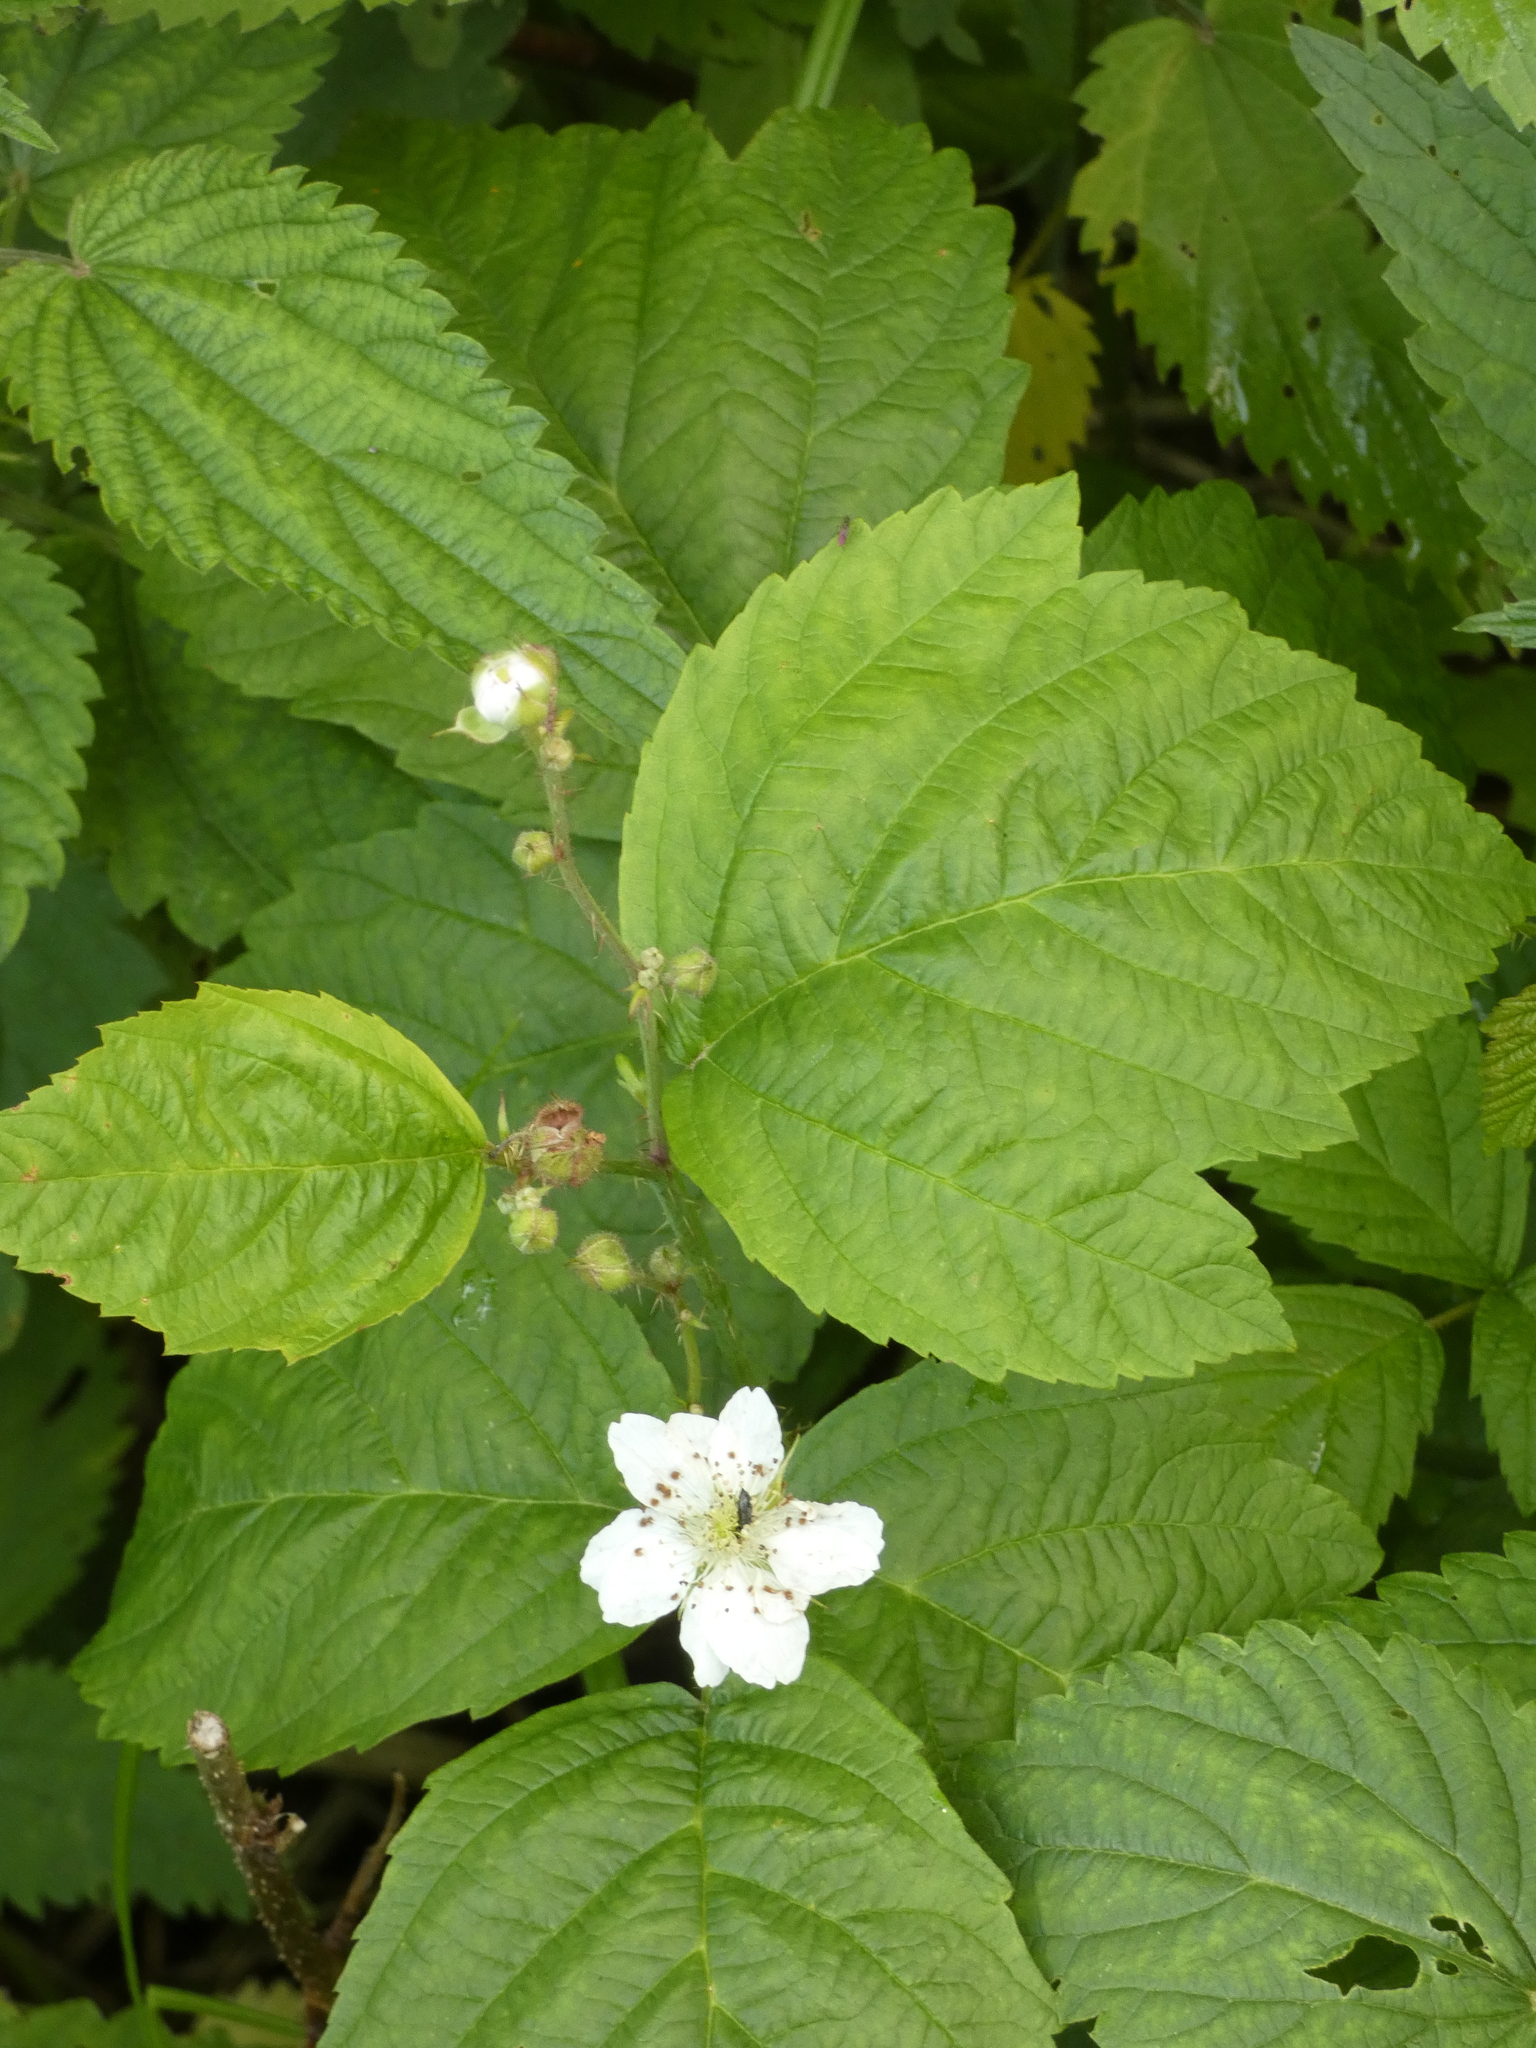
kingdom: Plantae
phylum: Tracheophyta
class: Magnoliopsida
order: Rosales
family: Rosaceae
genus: Rubus
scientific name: Rubus caesius
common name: Dewberry
